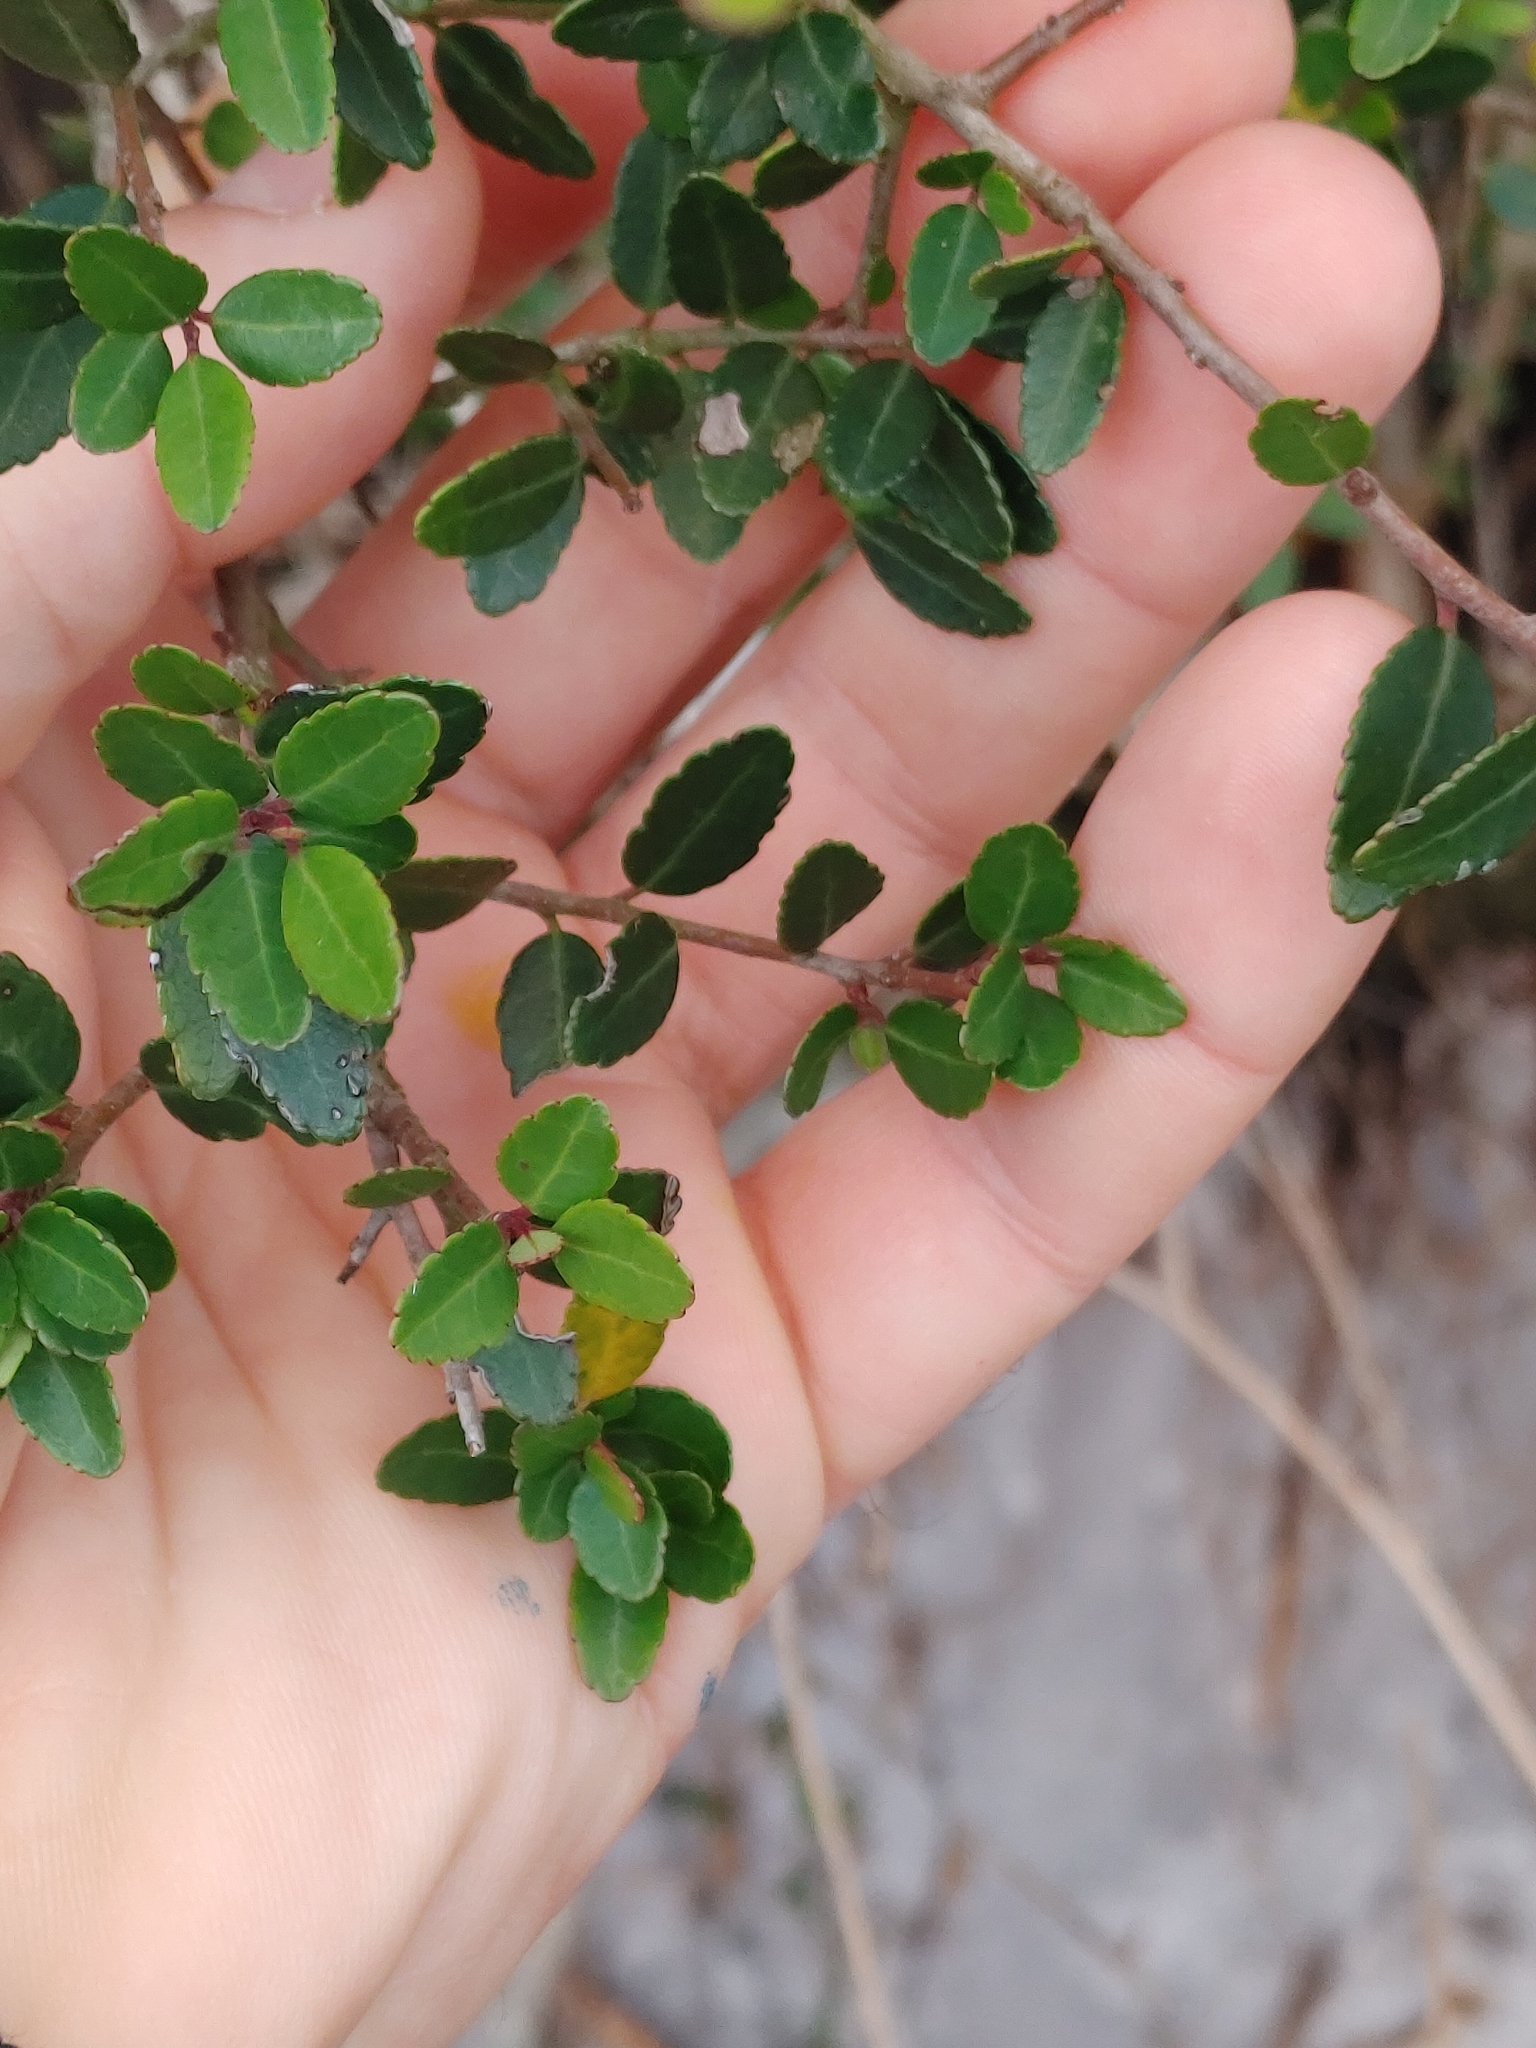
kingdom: Plantae
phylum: Tracheophyta
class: Magnoliopsida
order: Aquifoliales
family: Aquifoliaceae
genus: Ilex
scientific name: Ilex vomitoria
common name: Yaupon holly
